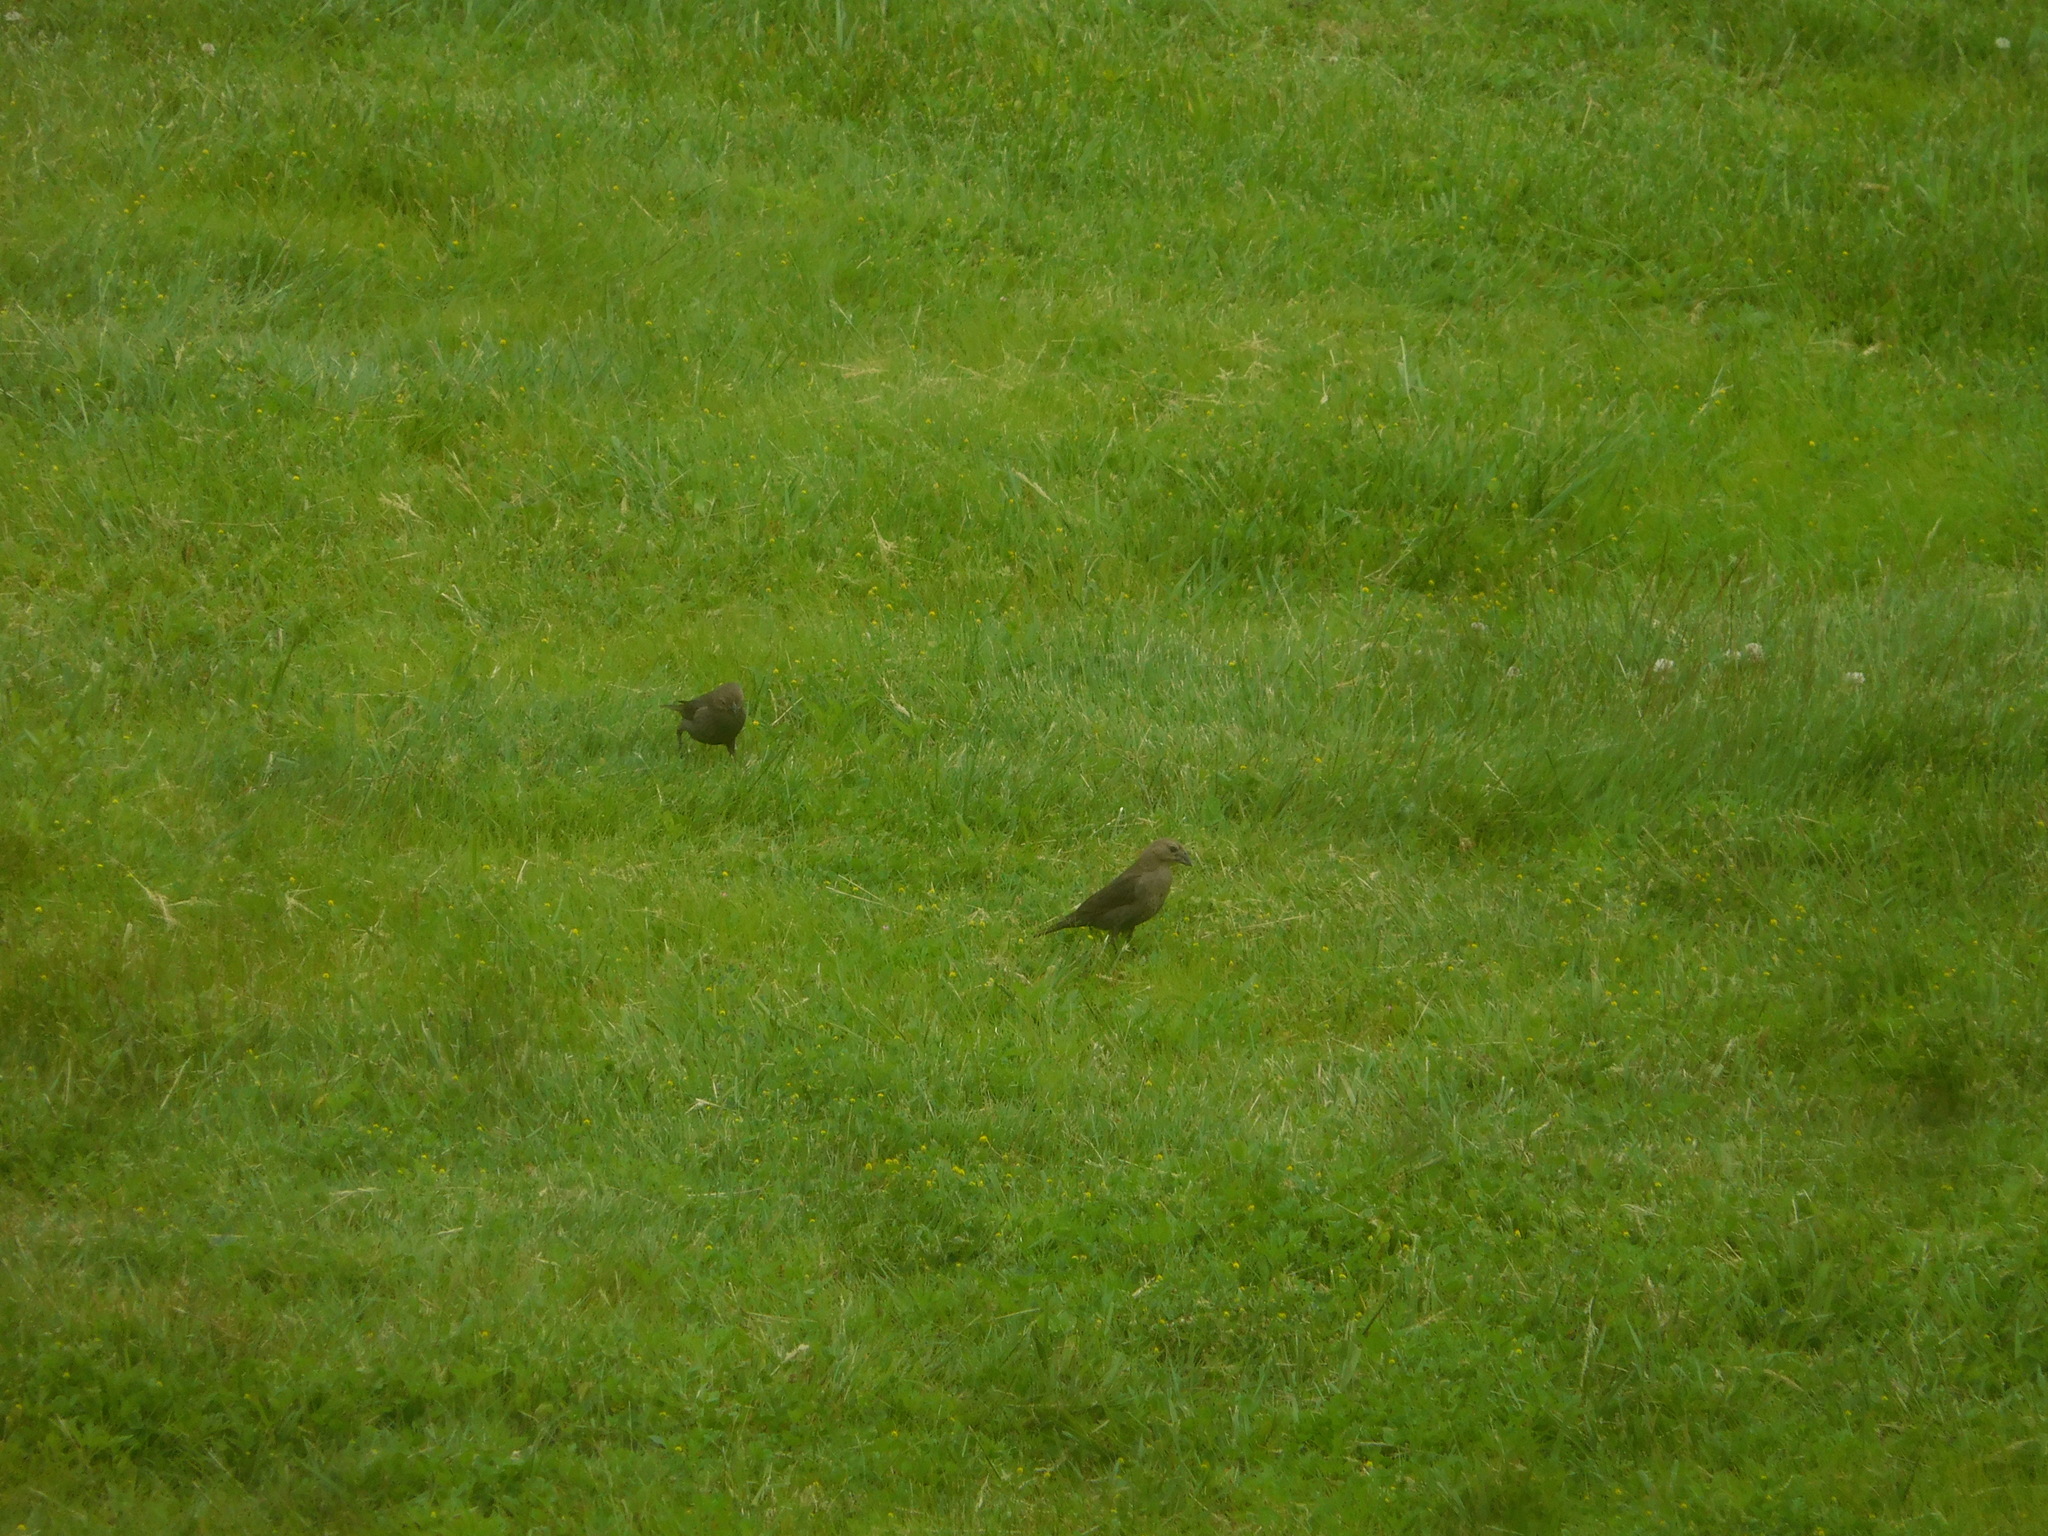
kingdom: Animalia
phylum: Chordata
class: Aves
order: Passeriformes
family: Icteridae
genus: Molothrus
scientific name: Molothrus ater
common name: Brown-headed cowbird
